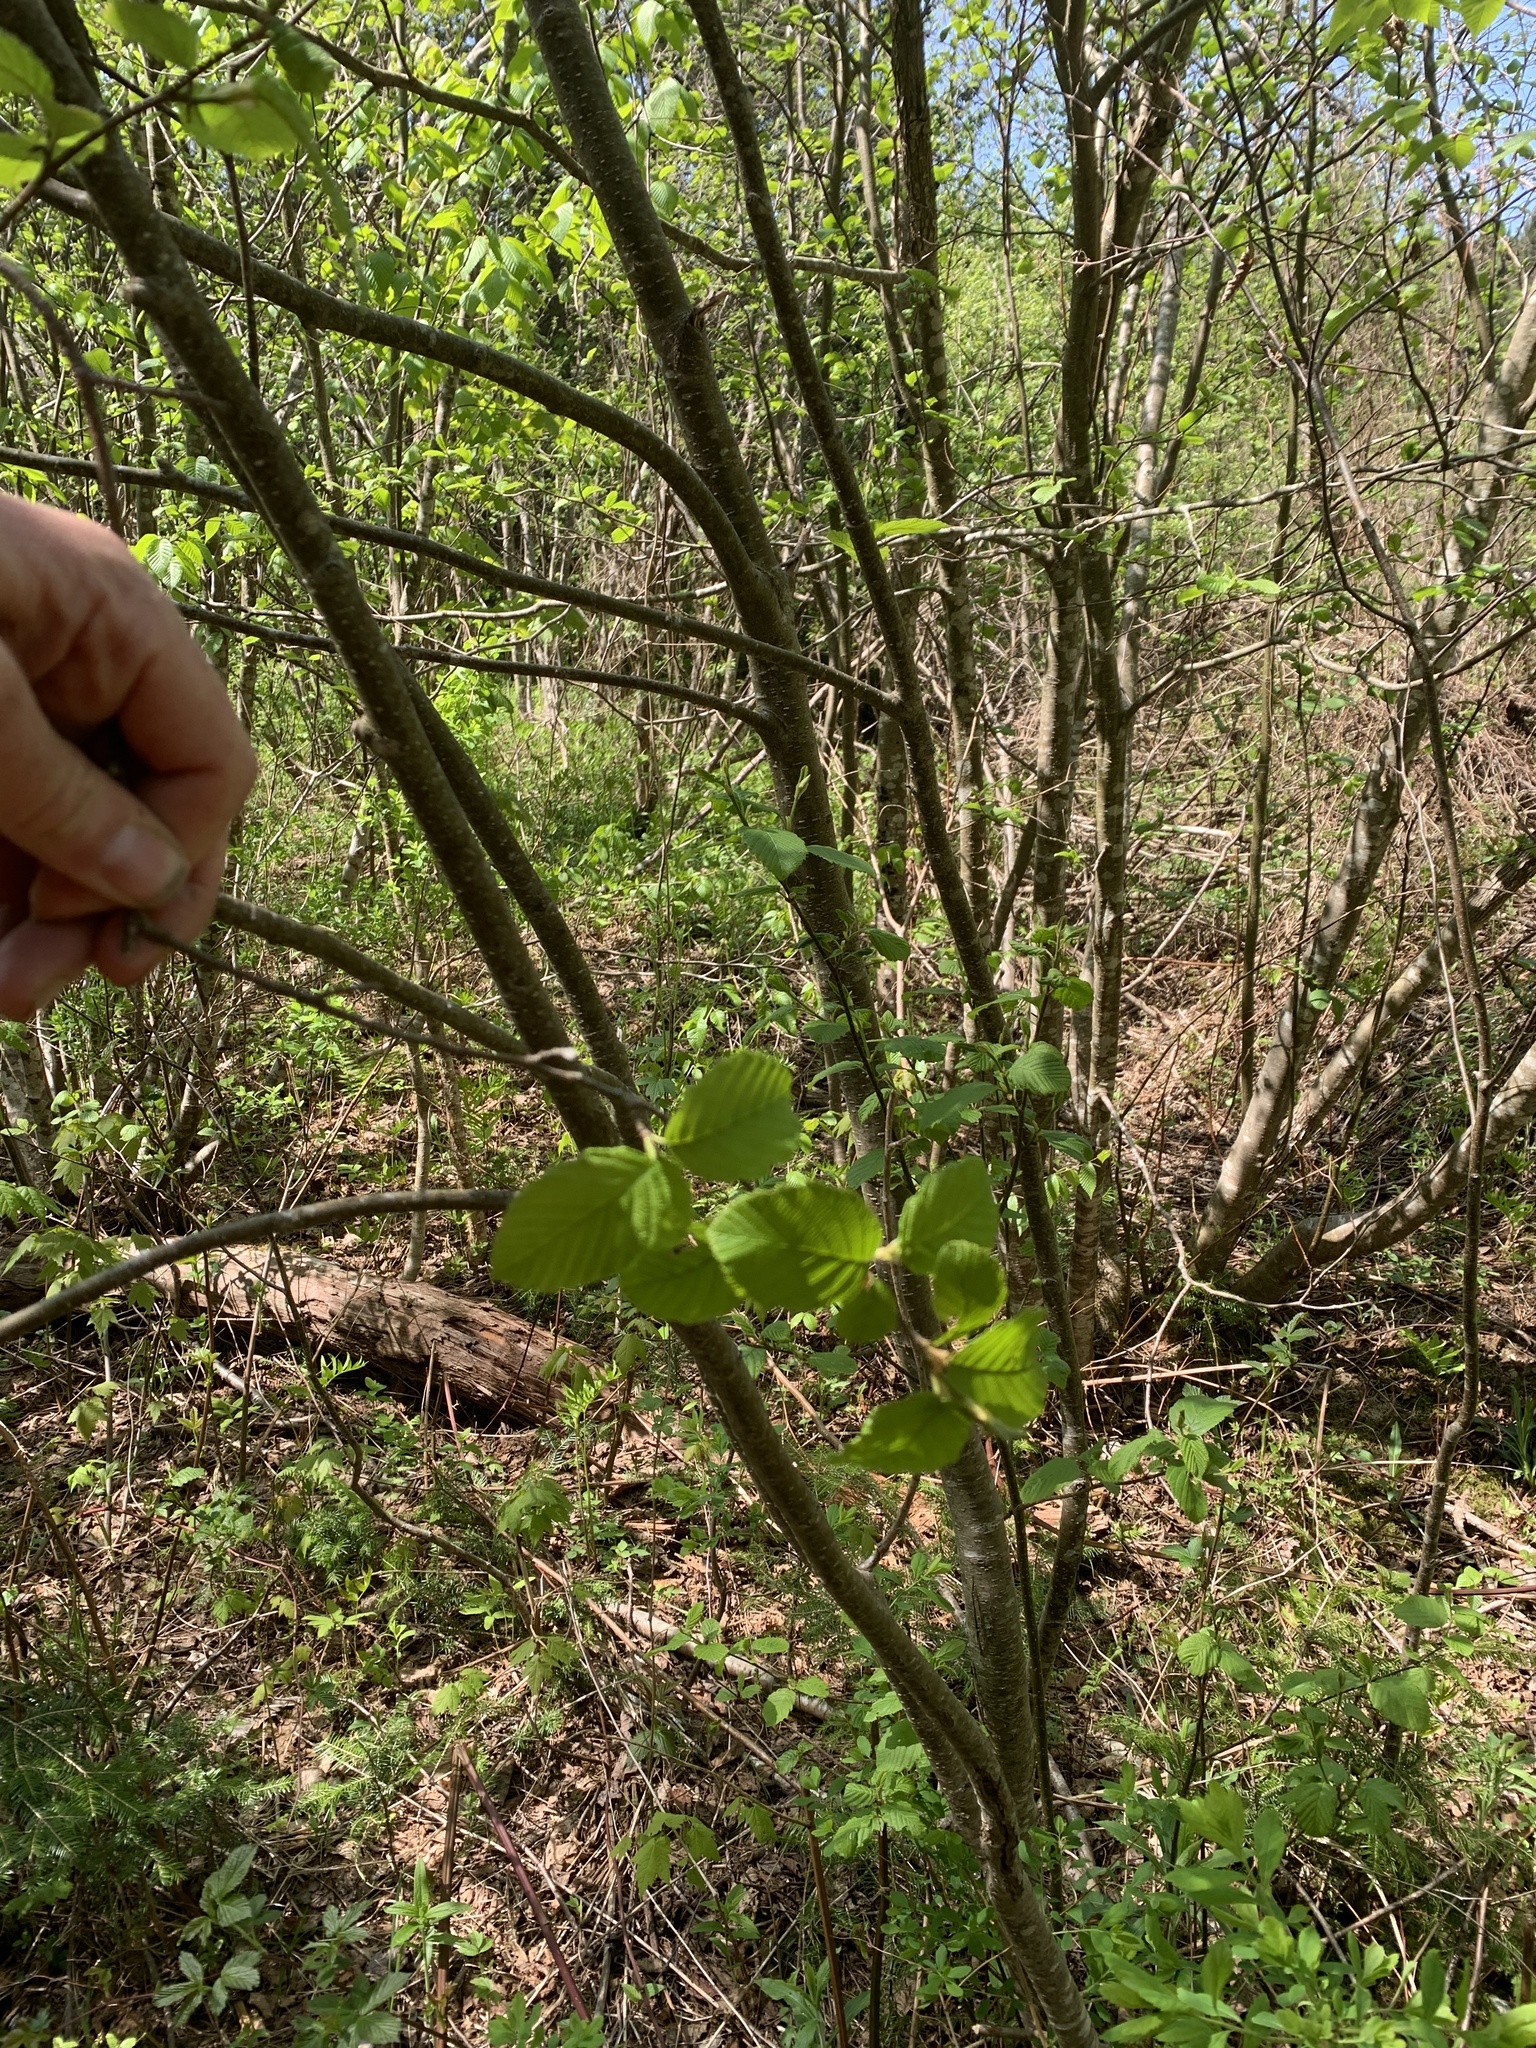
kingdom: Plantae
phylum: Tracheophyta
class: Magnoliopsida
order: Fagales
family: Betulaceae
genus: Alnus
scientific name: Alnus incana
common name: Grey alder
